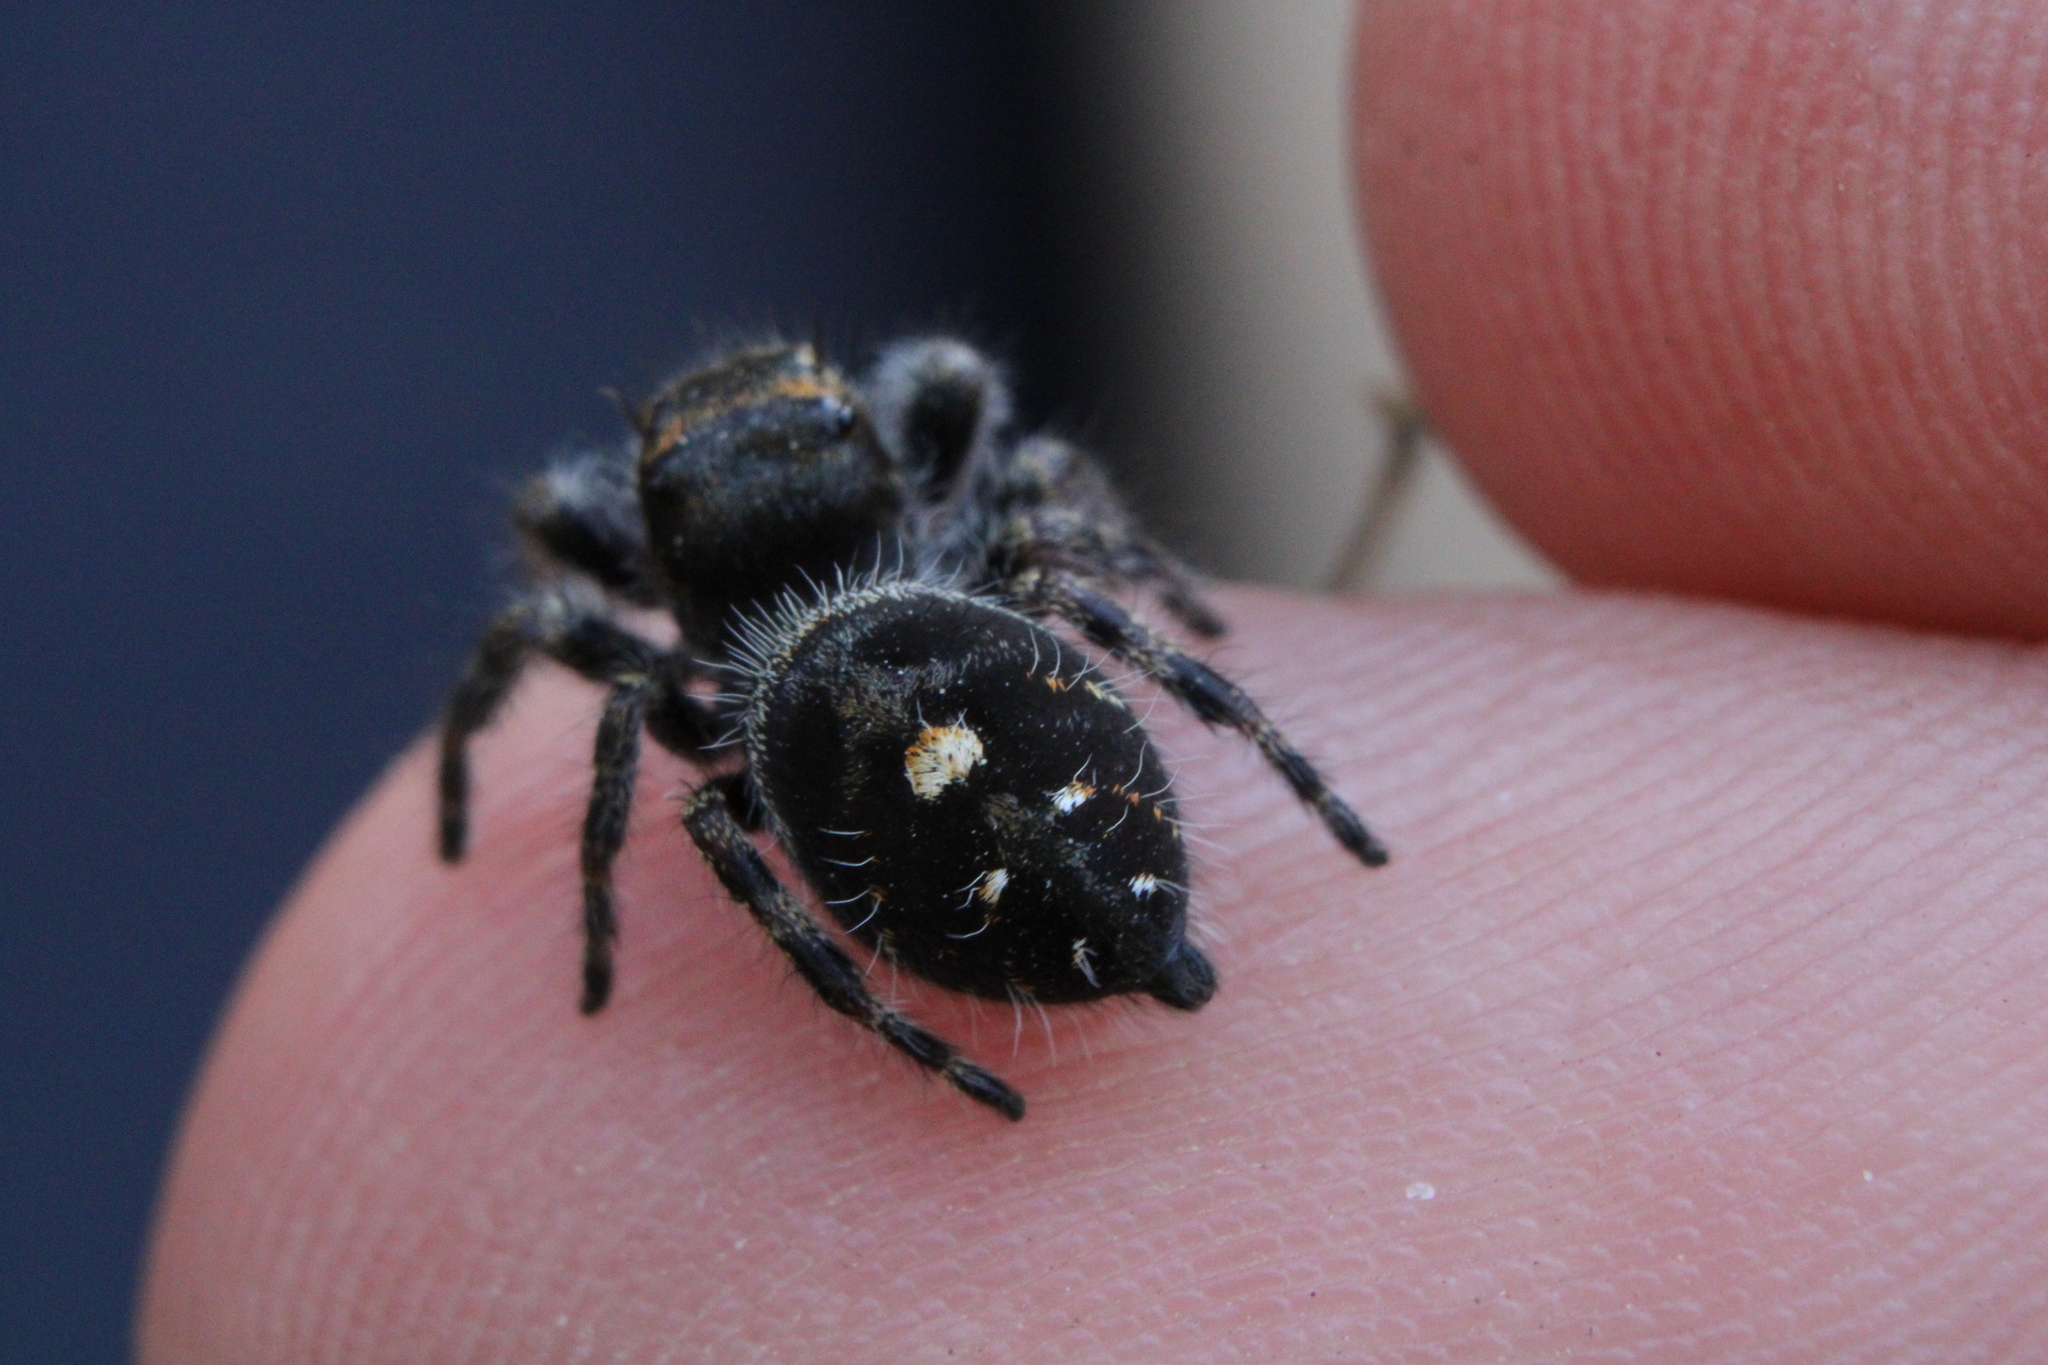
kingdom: Animalia
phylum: Arthropoda
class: Arachnida
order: Araneae
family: Salticidae
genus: Phidippus
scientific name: Phidippus audax
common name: Bold jumper
